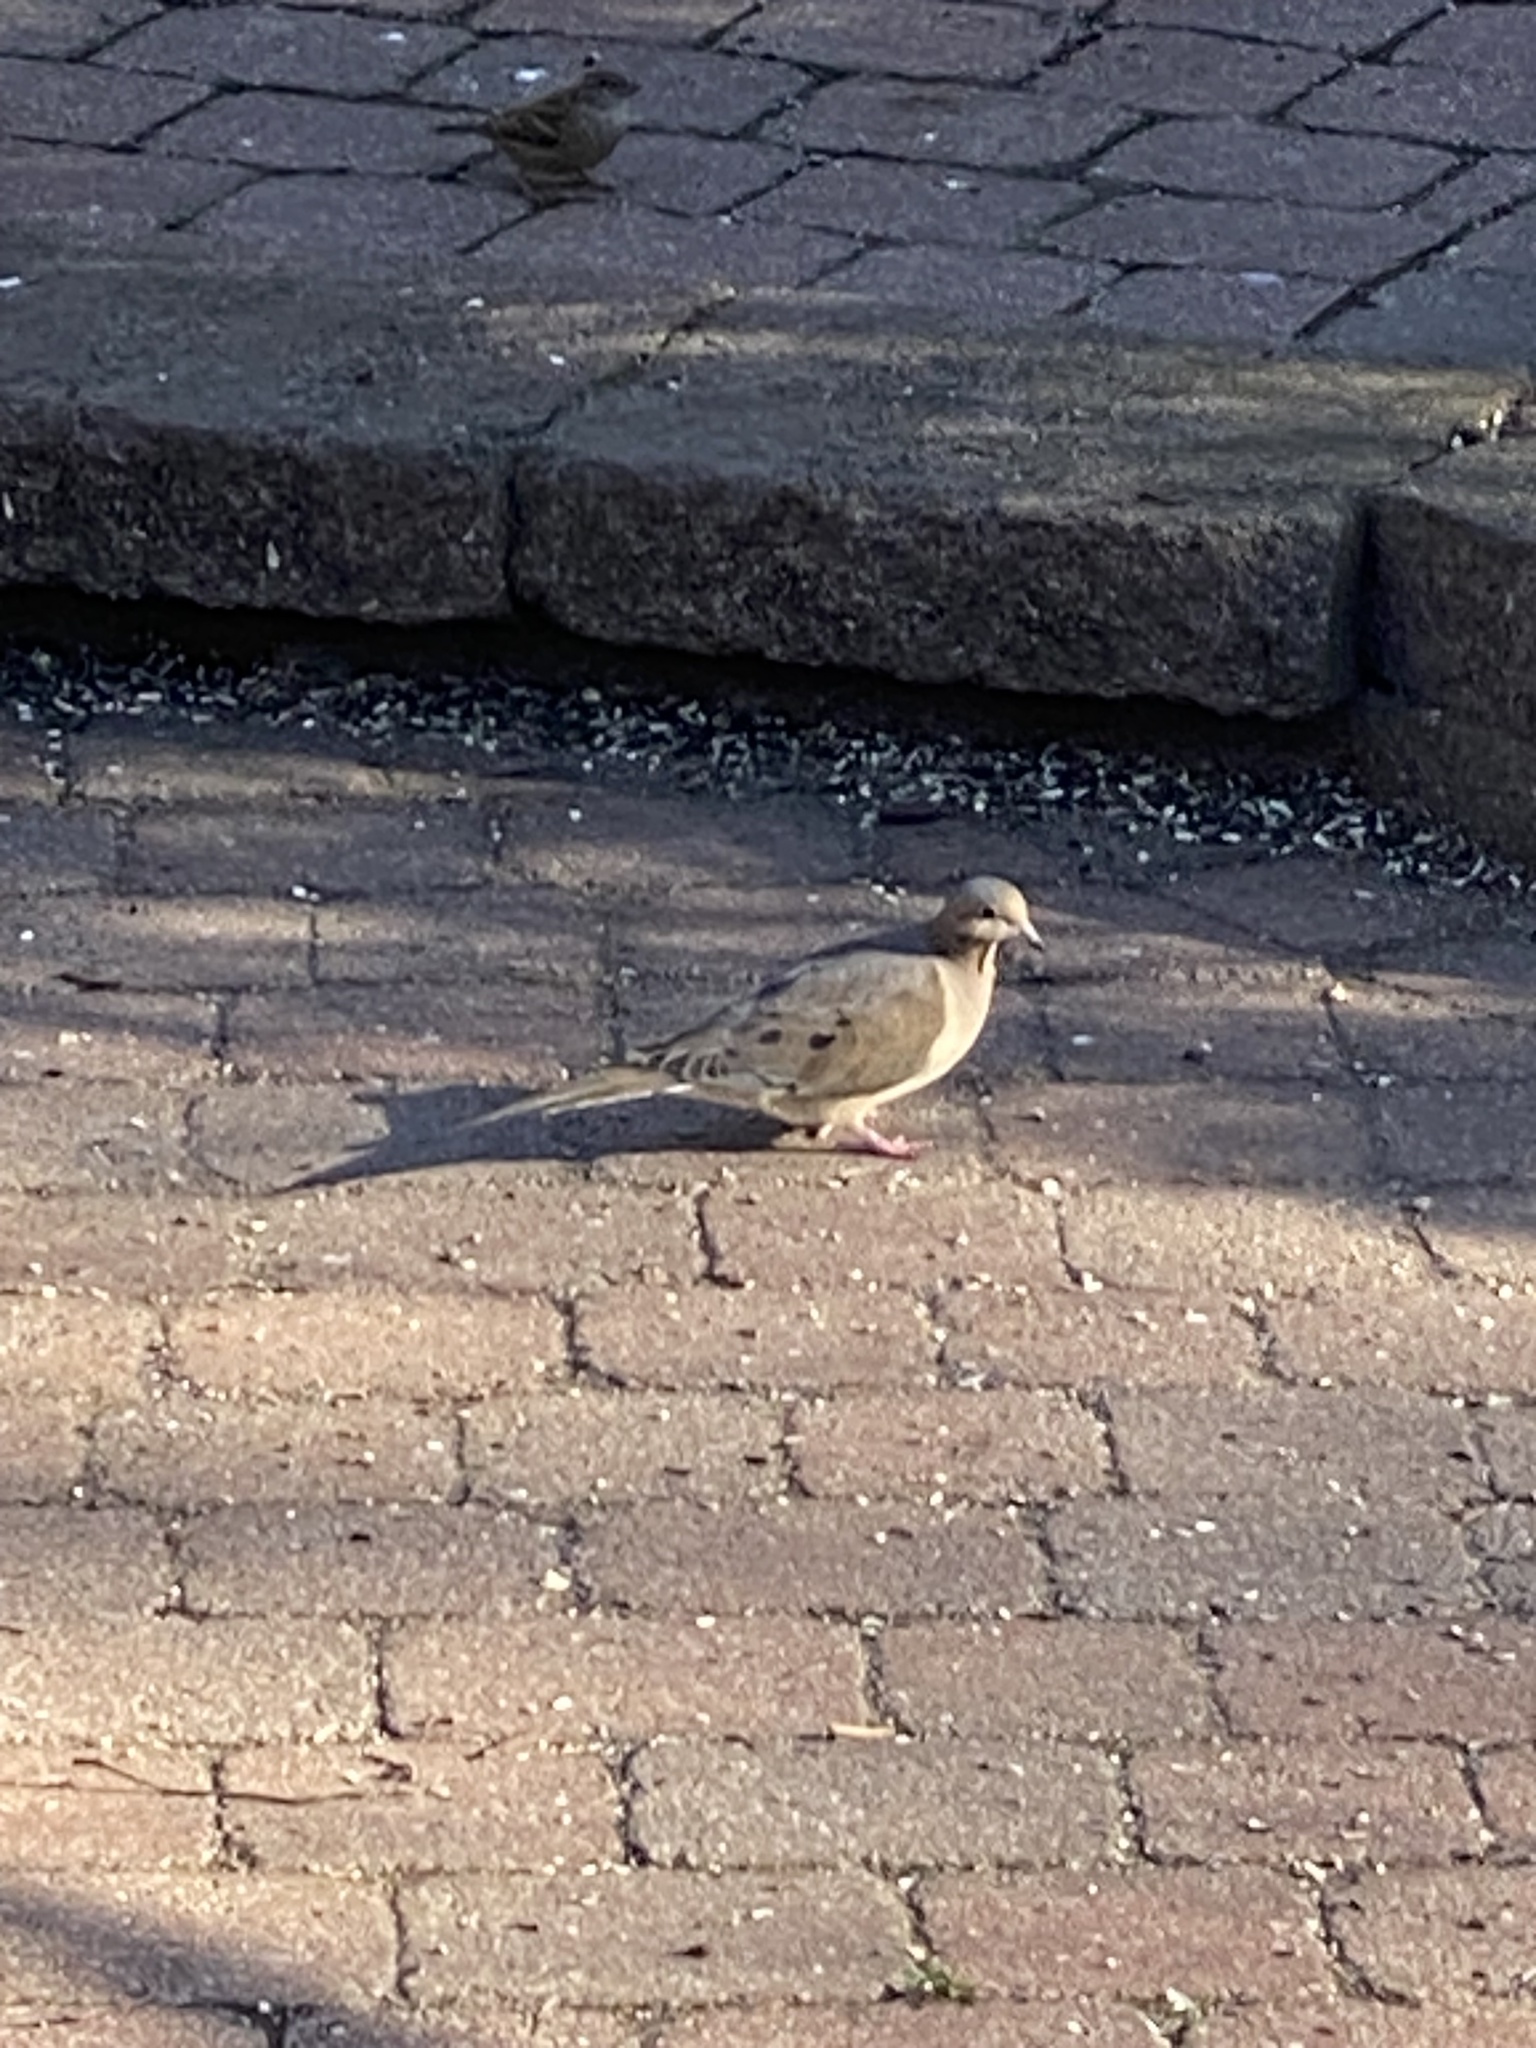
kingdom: Animalia
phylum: Chordata
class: Aves
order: Columbiformes
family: Columbidae
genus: Zenaida
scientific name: Zenaida macroura
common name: Mourning dove
